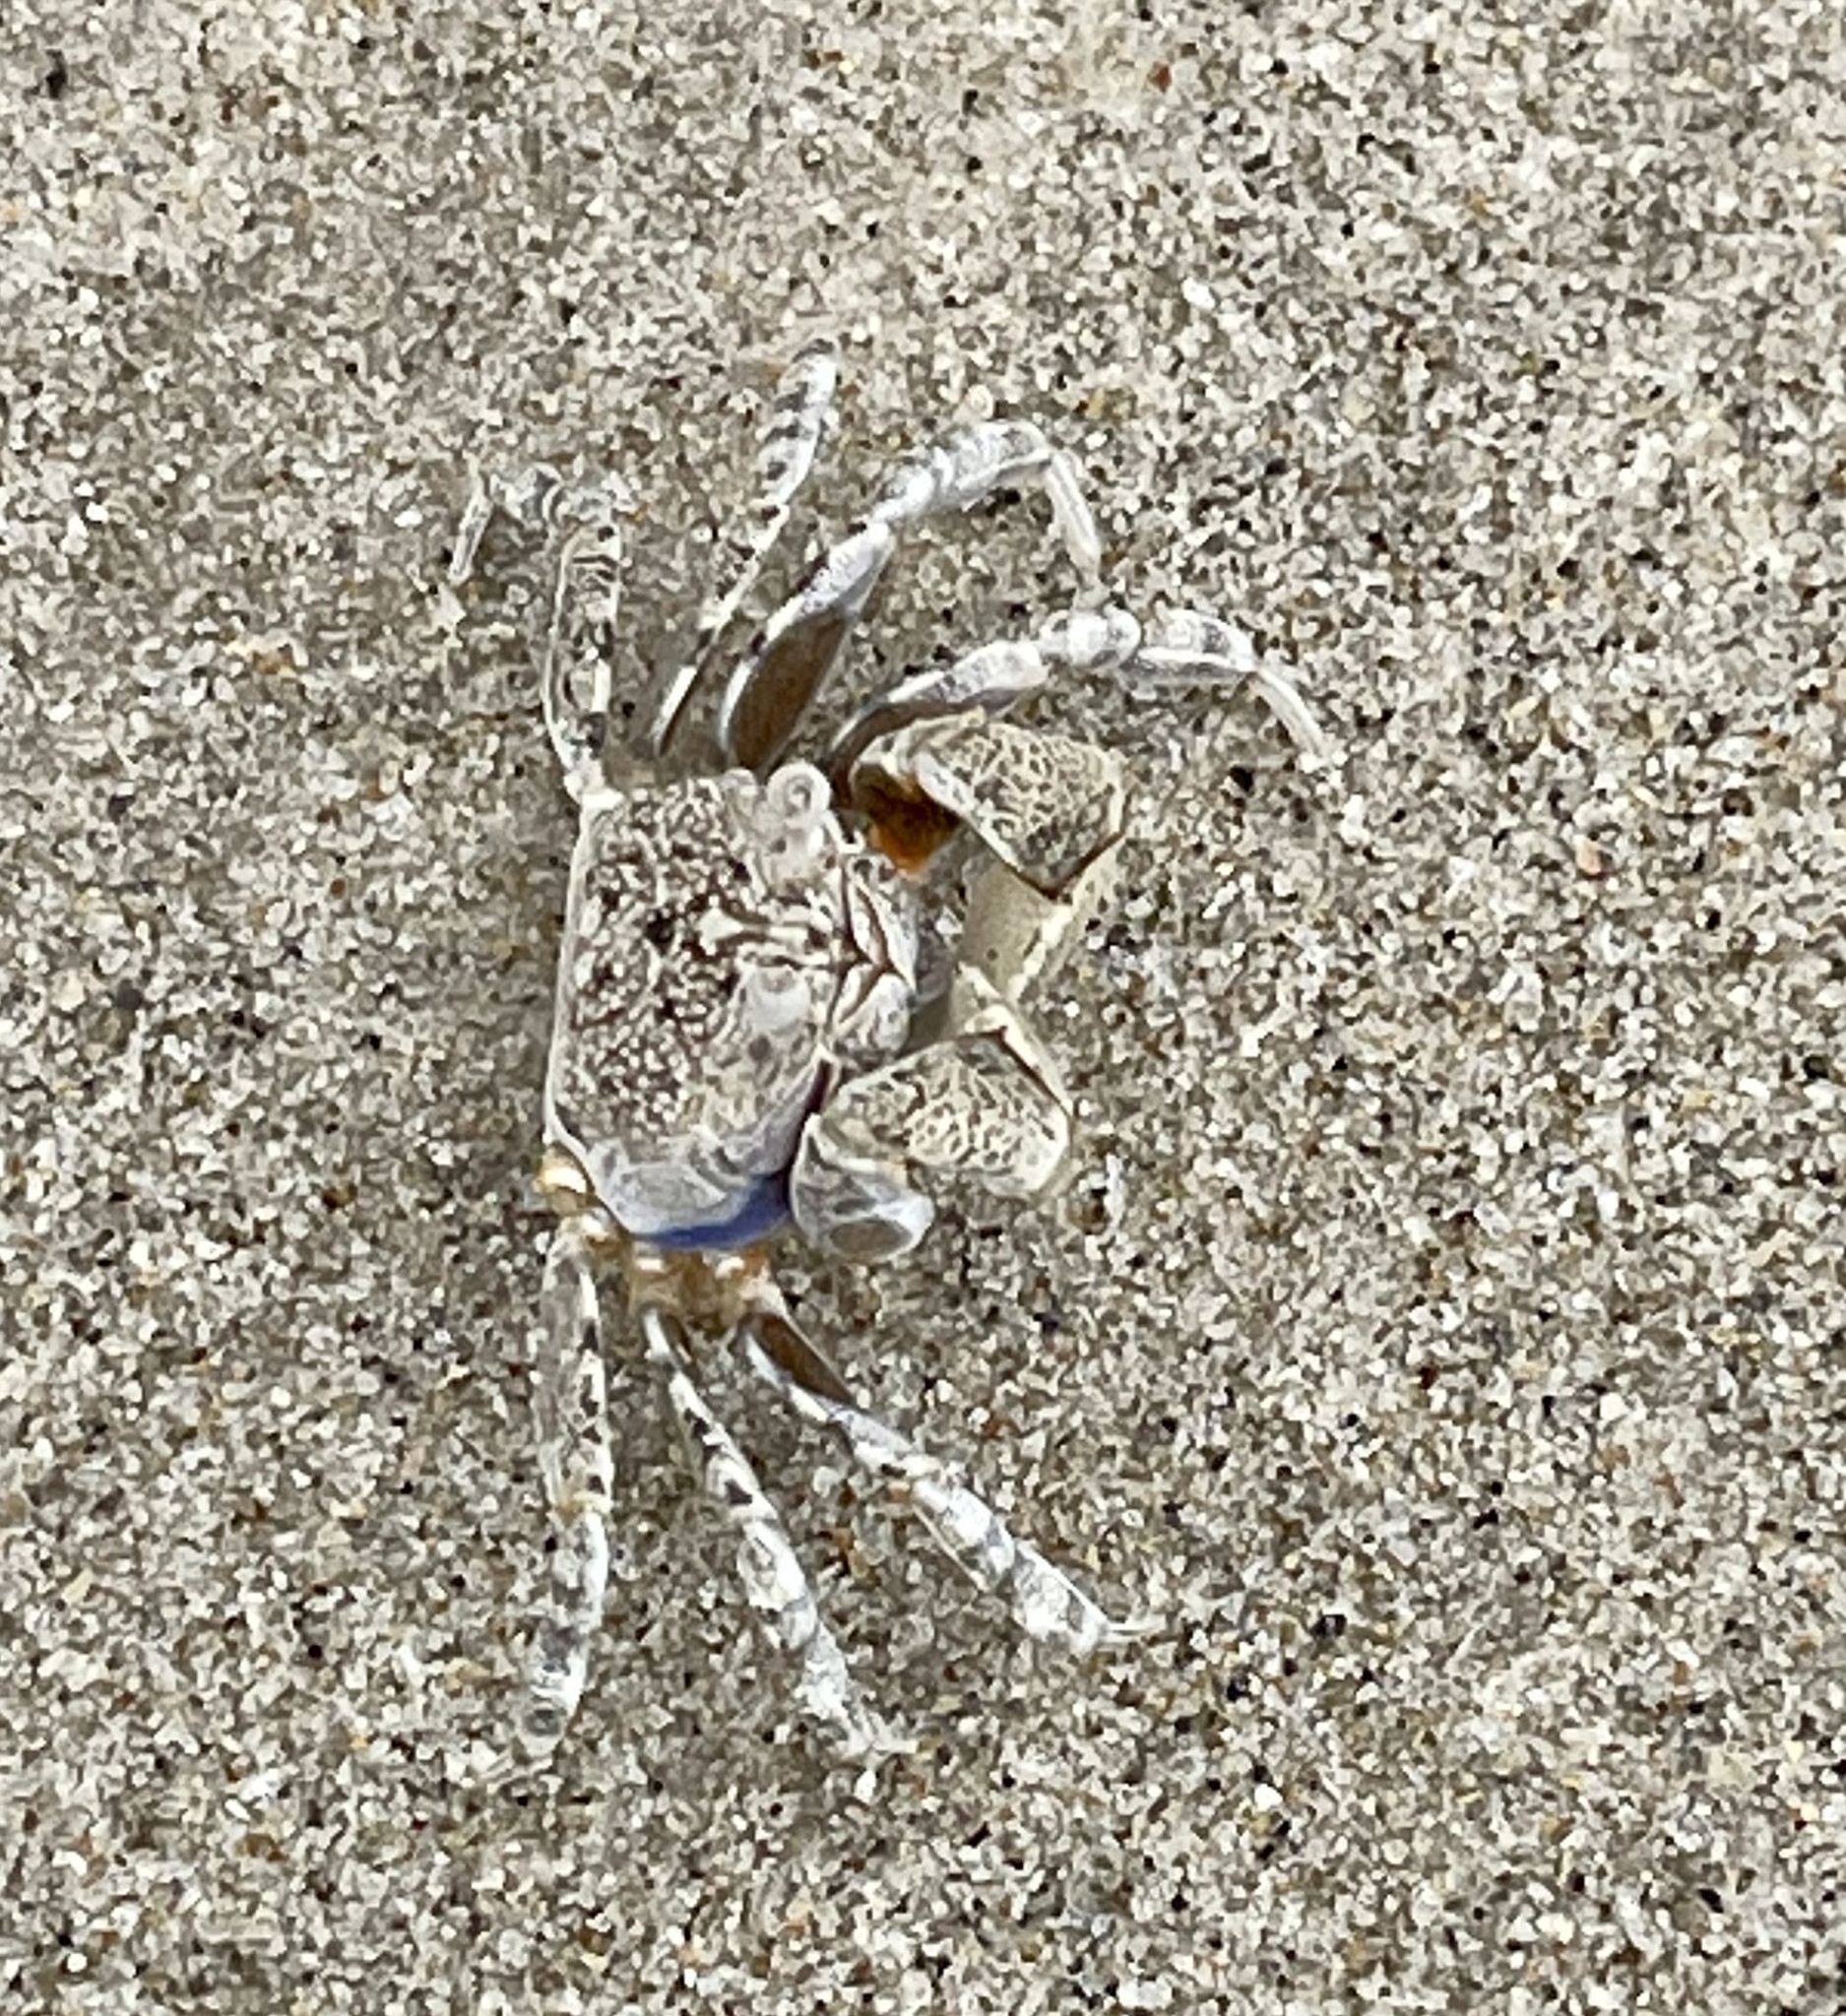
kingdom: Animalia
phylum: Arthropoda
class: Malacostraca
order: Decapoda
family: Dotillidae
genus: Scopimera
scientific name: Scopimera inflata
